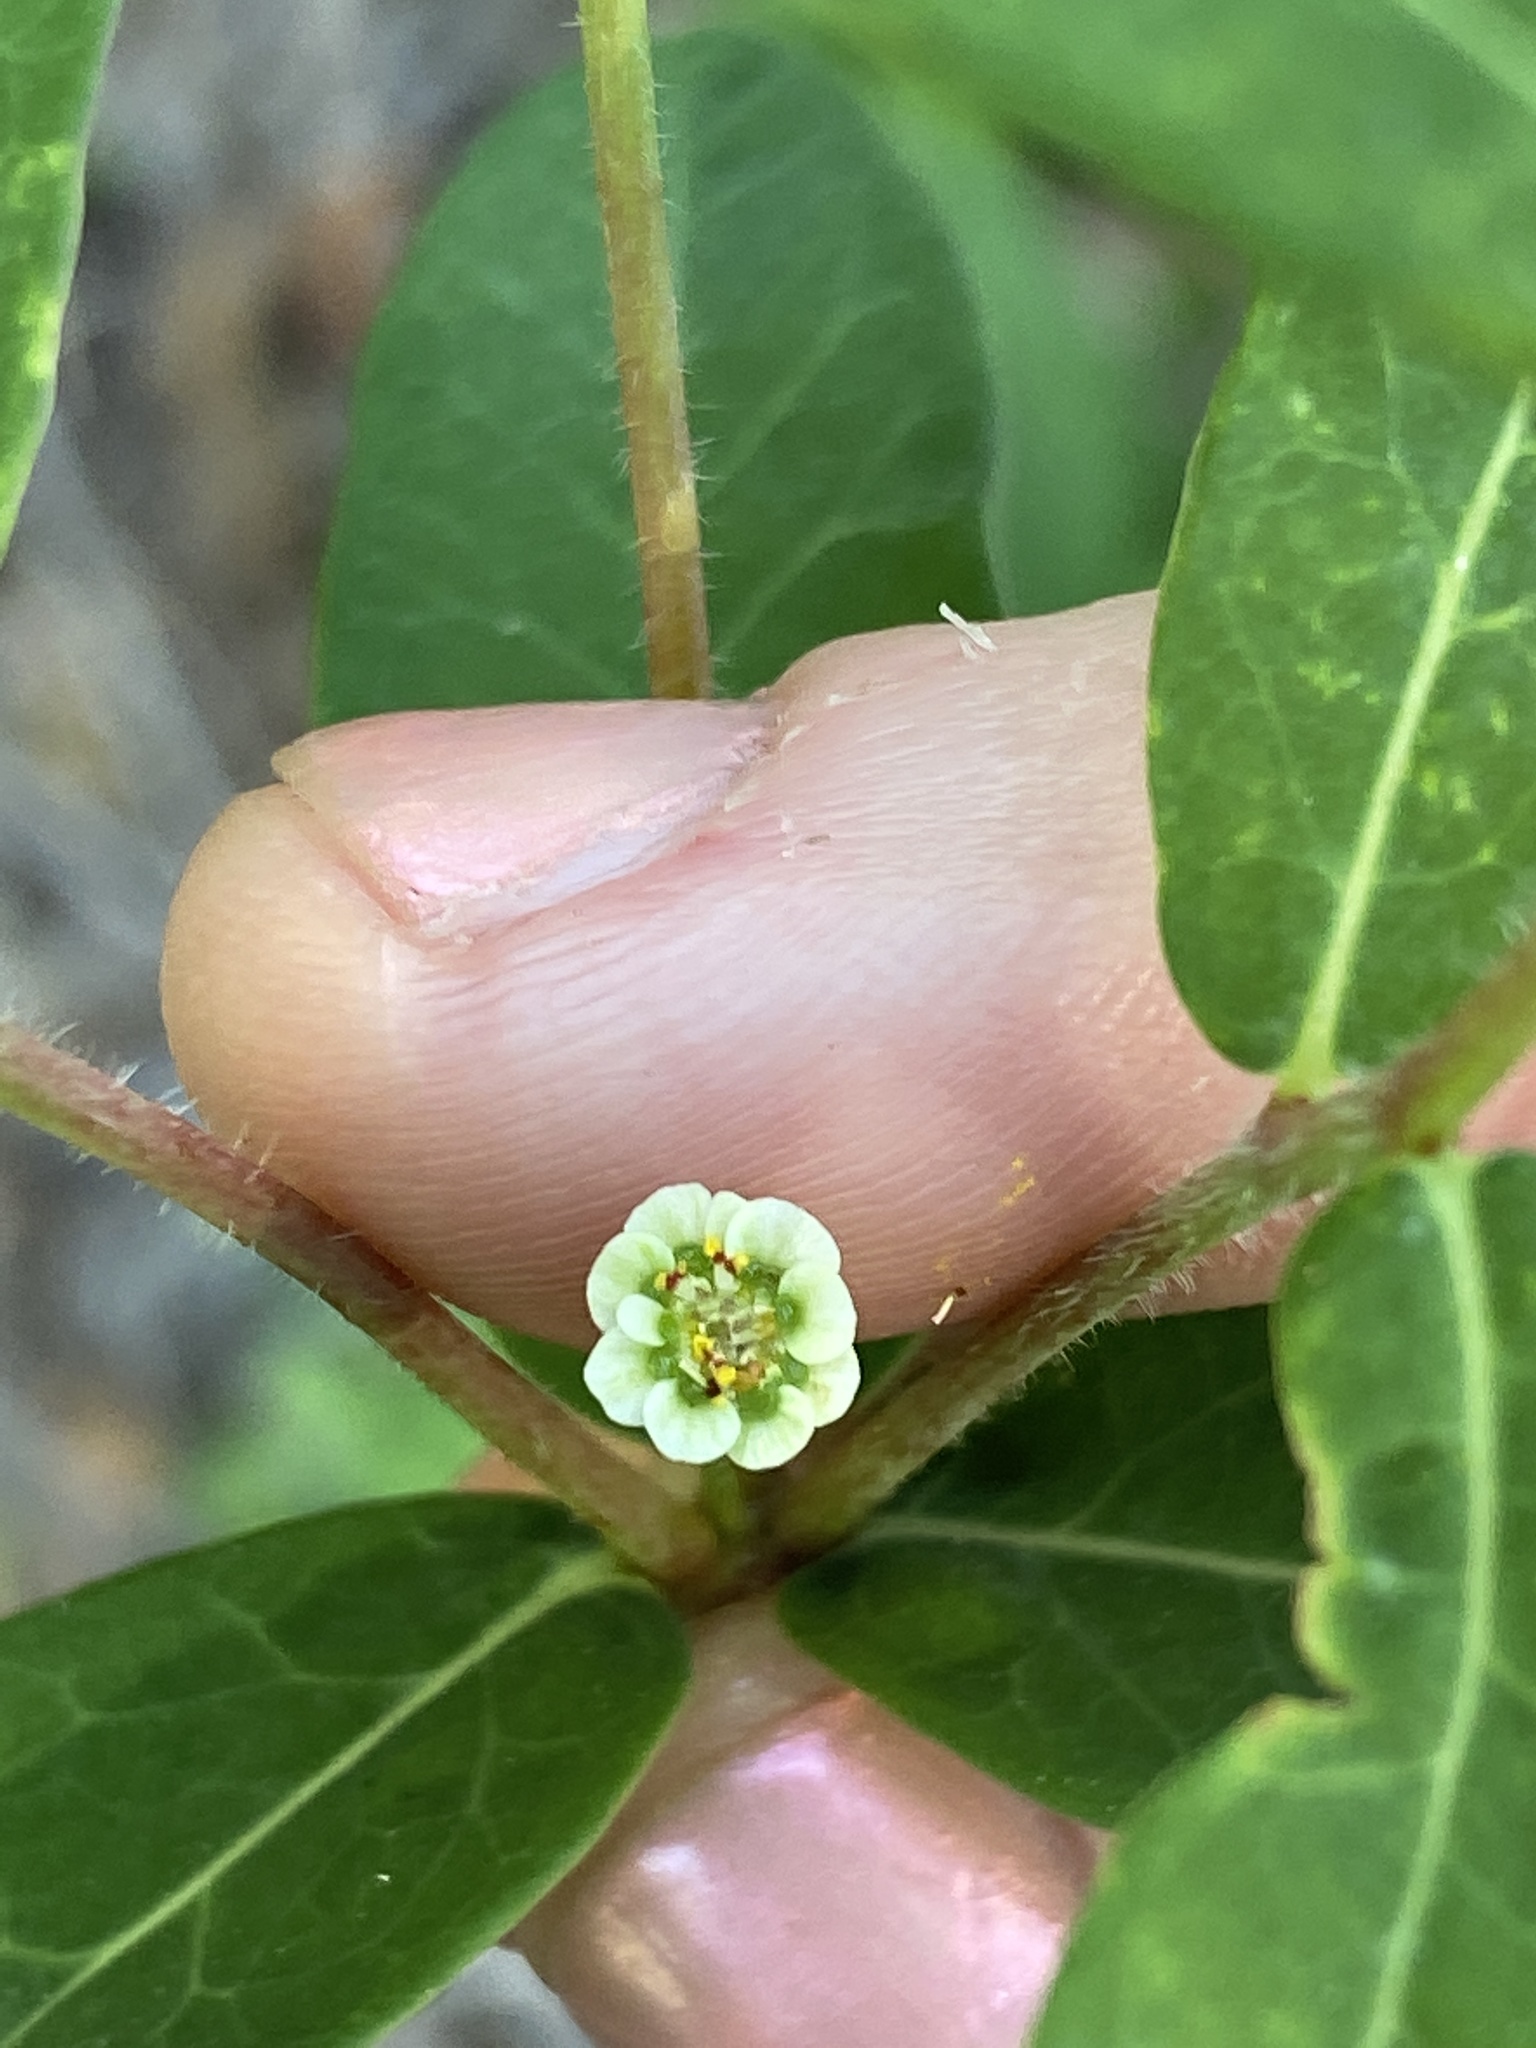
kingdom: Plantae
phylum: Tracheophyta
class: Magnoliopsida
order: Malpighiales
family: Euphorbiaceae
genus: Euphorbia
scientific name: Euphorbia pubentissima
